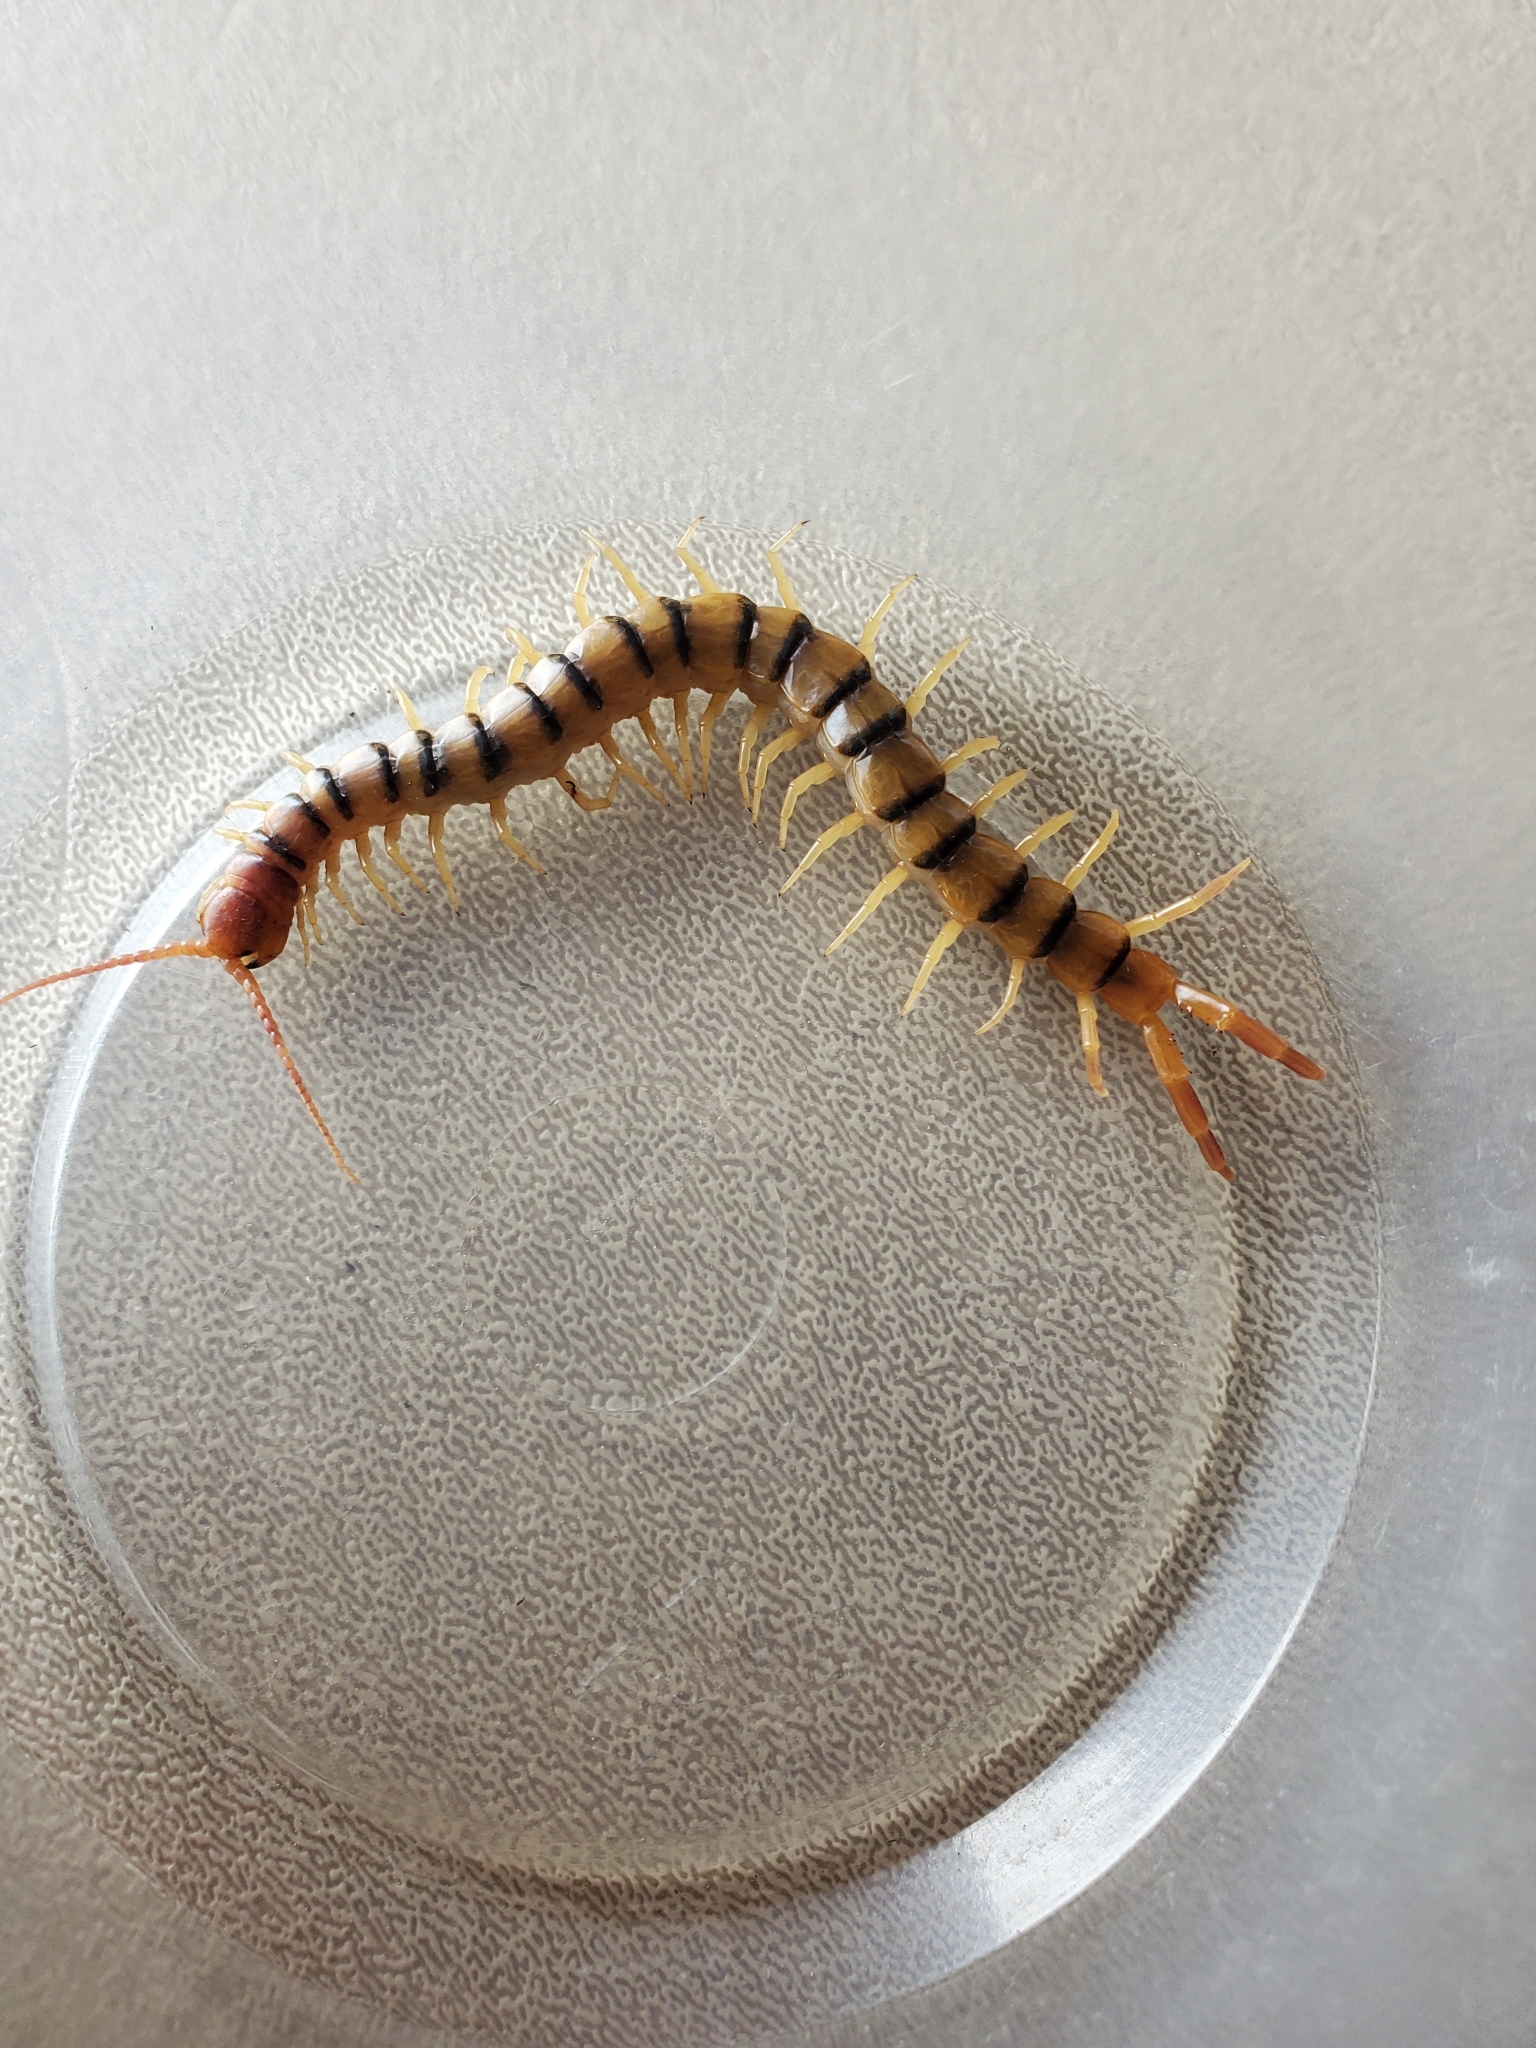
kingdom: Animalia
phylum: Arthropoda
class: Chilopoda
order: Scolopendromorpha
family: Scolopendridae
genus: Scolopendra
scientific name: Scolopendra polymorpha
